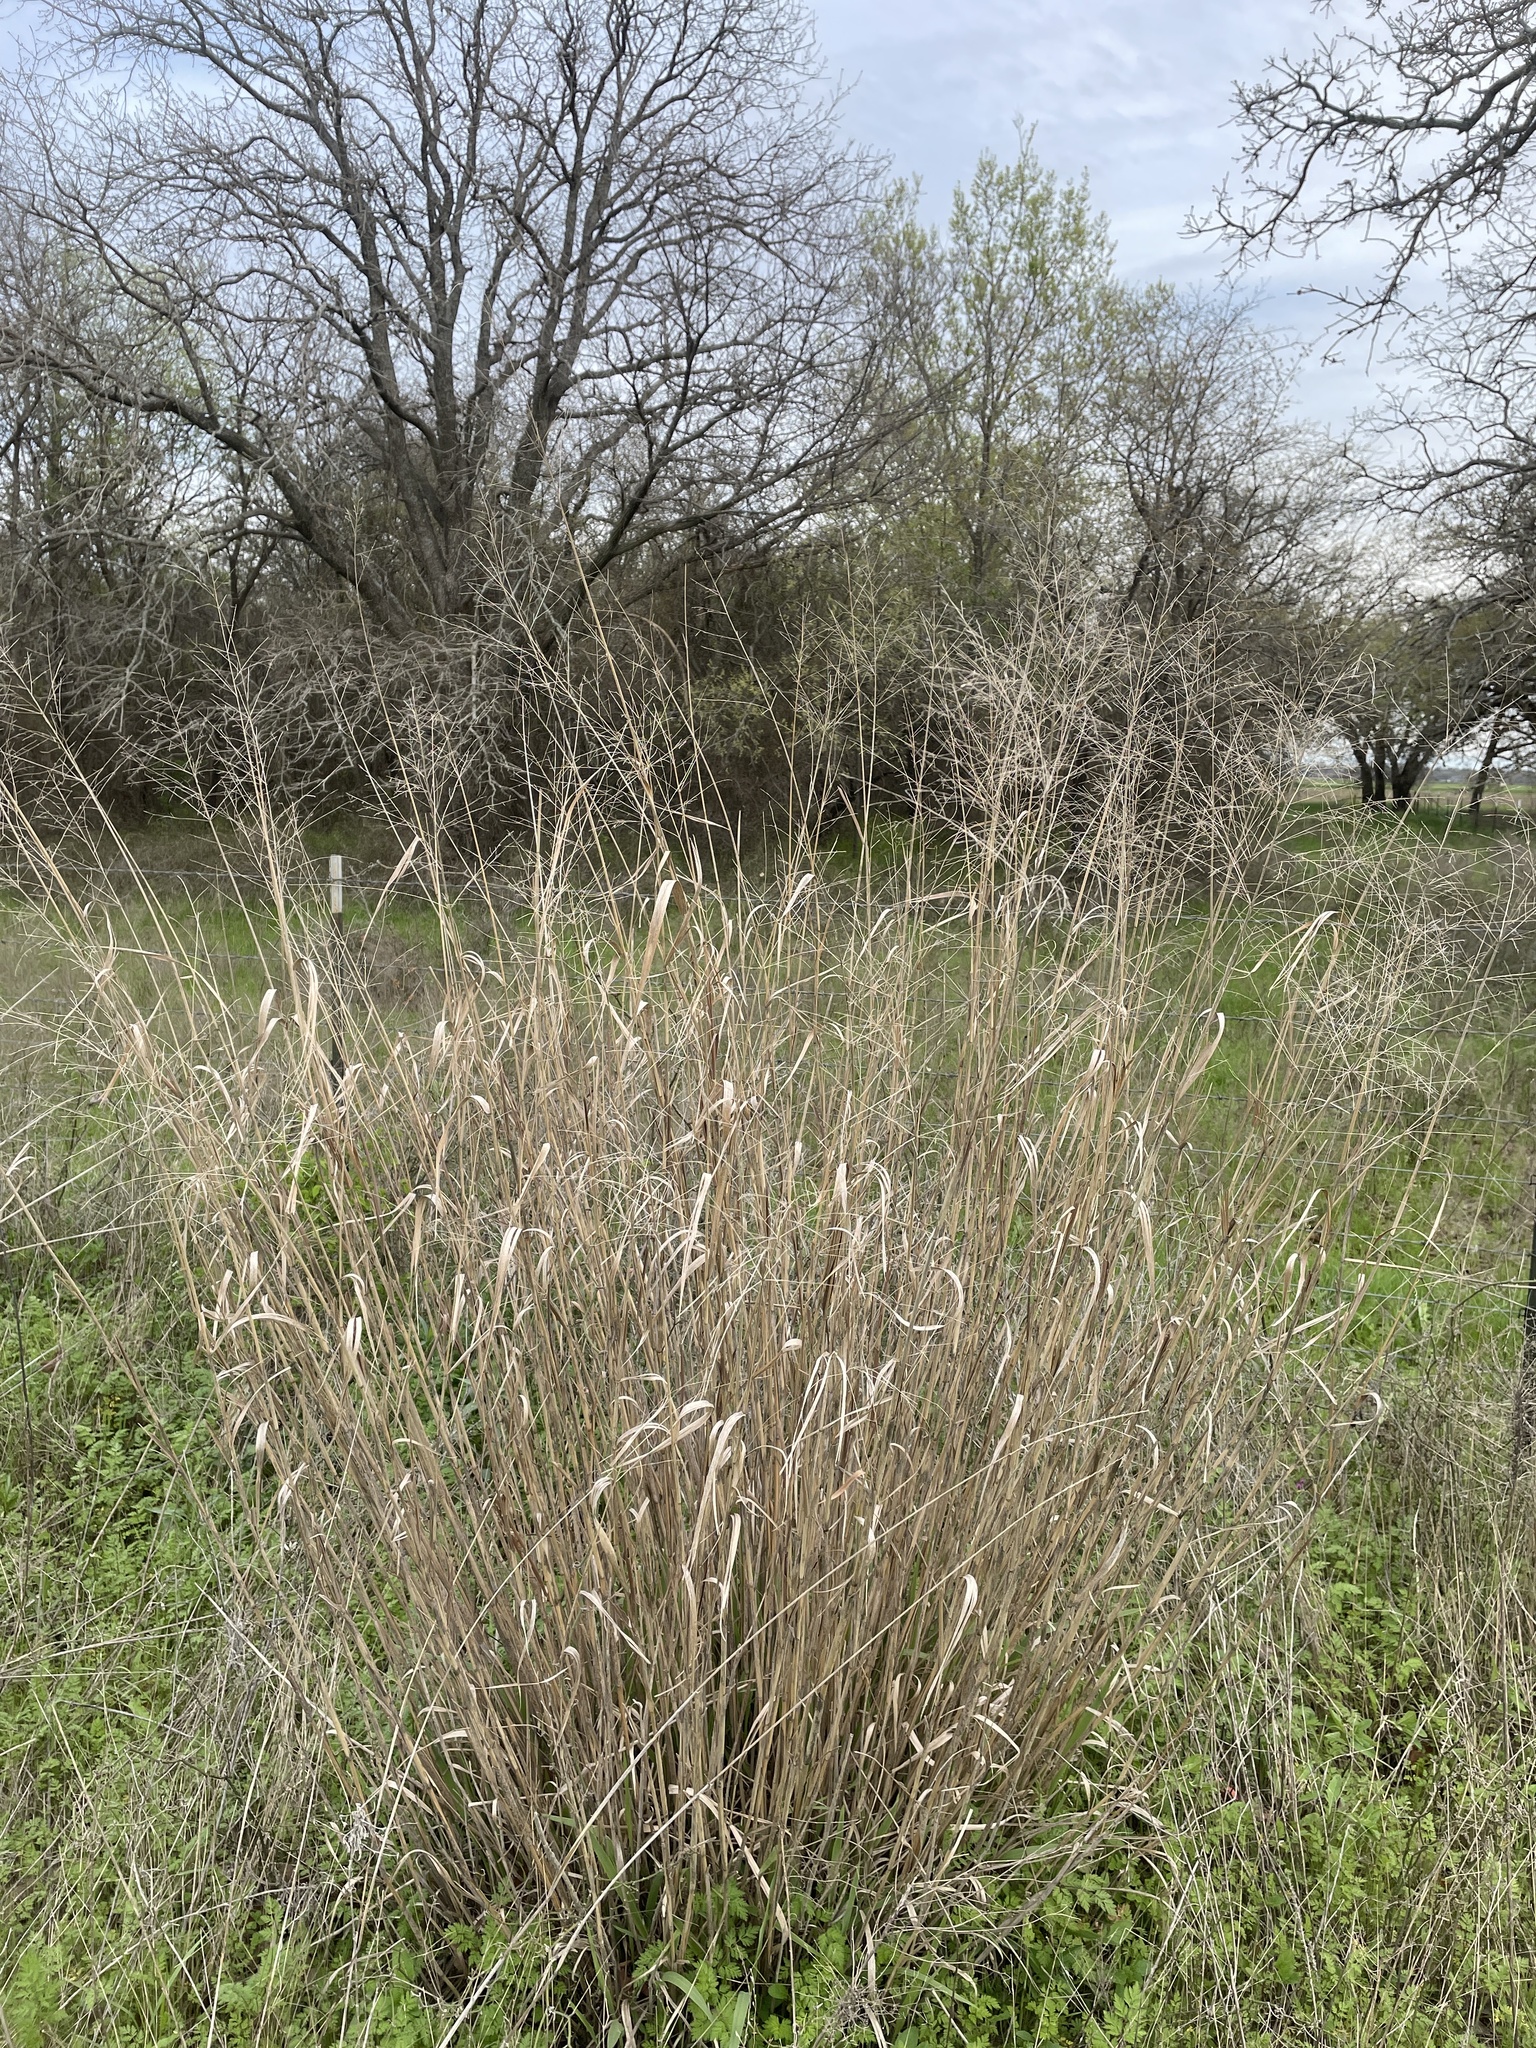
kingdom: Plantae
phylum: Tracheophyta
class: Liliopsida
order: Poales
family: Poaceae
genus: Panicum
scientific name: Panicum virgatum
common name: Switchgrass
